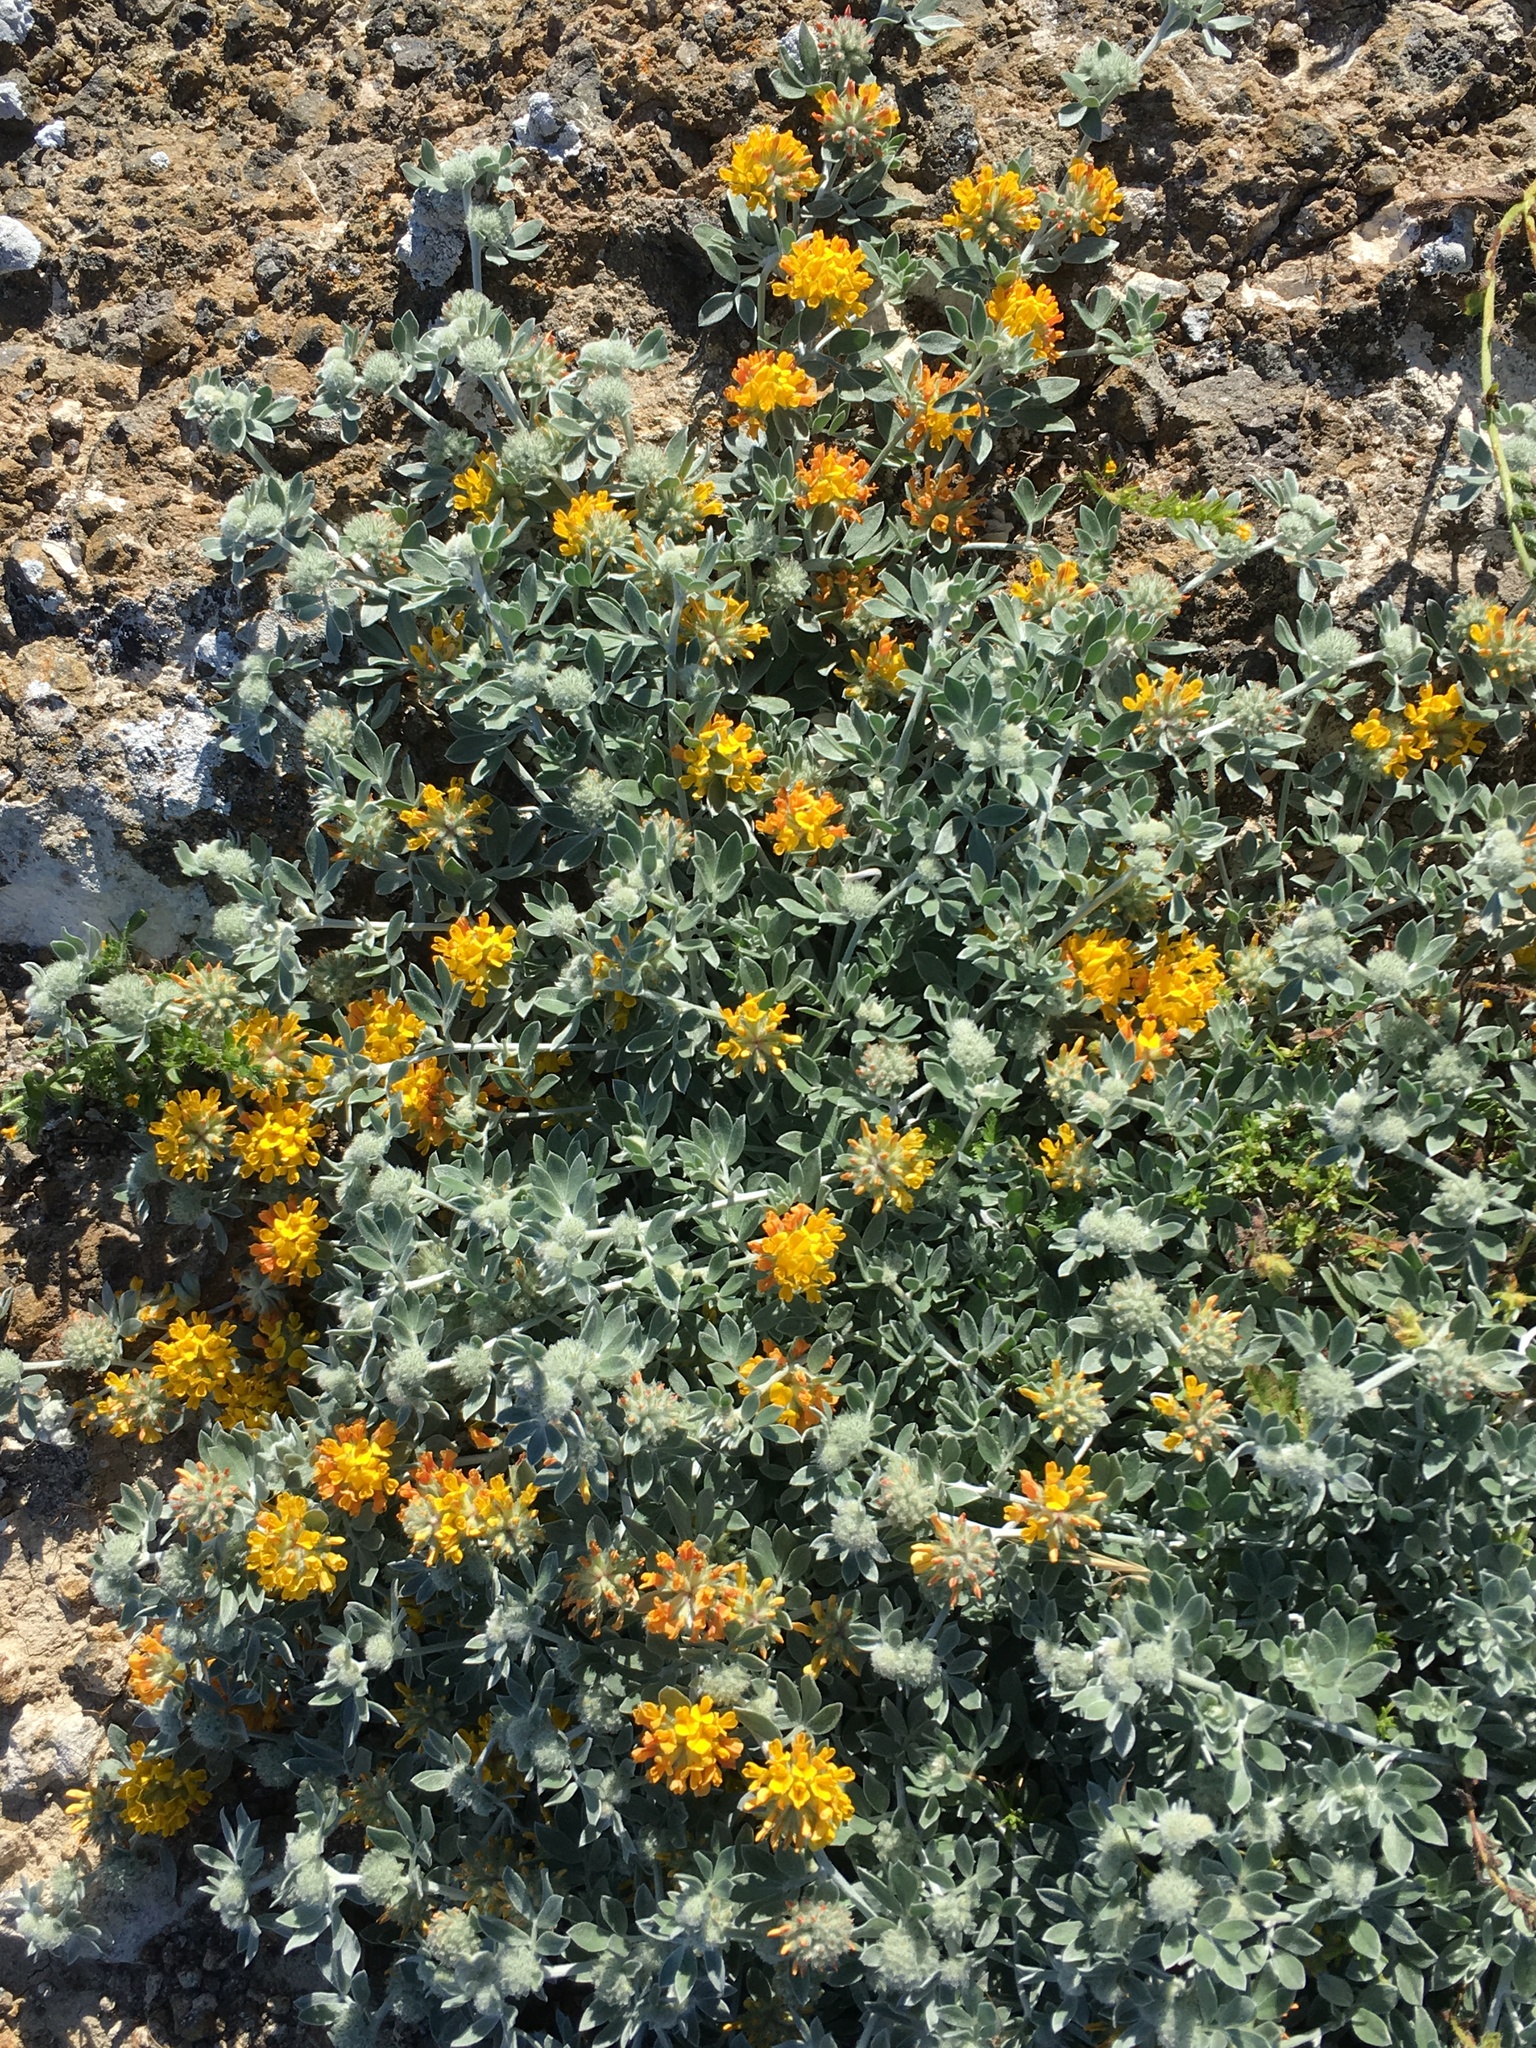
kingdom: Plantae
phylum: Tracheophyta
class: Magnoliopsida
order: Fabales
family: Fabaceae
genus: Acmispon
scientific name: Acmispon argophyllus
